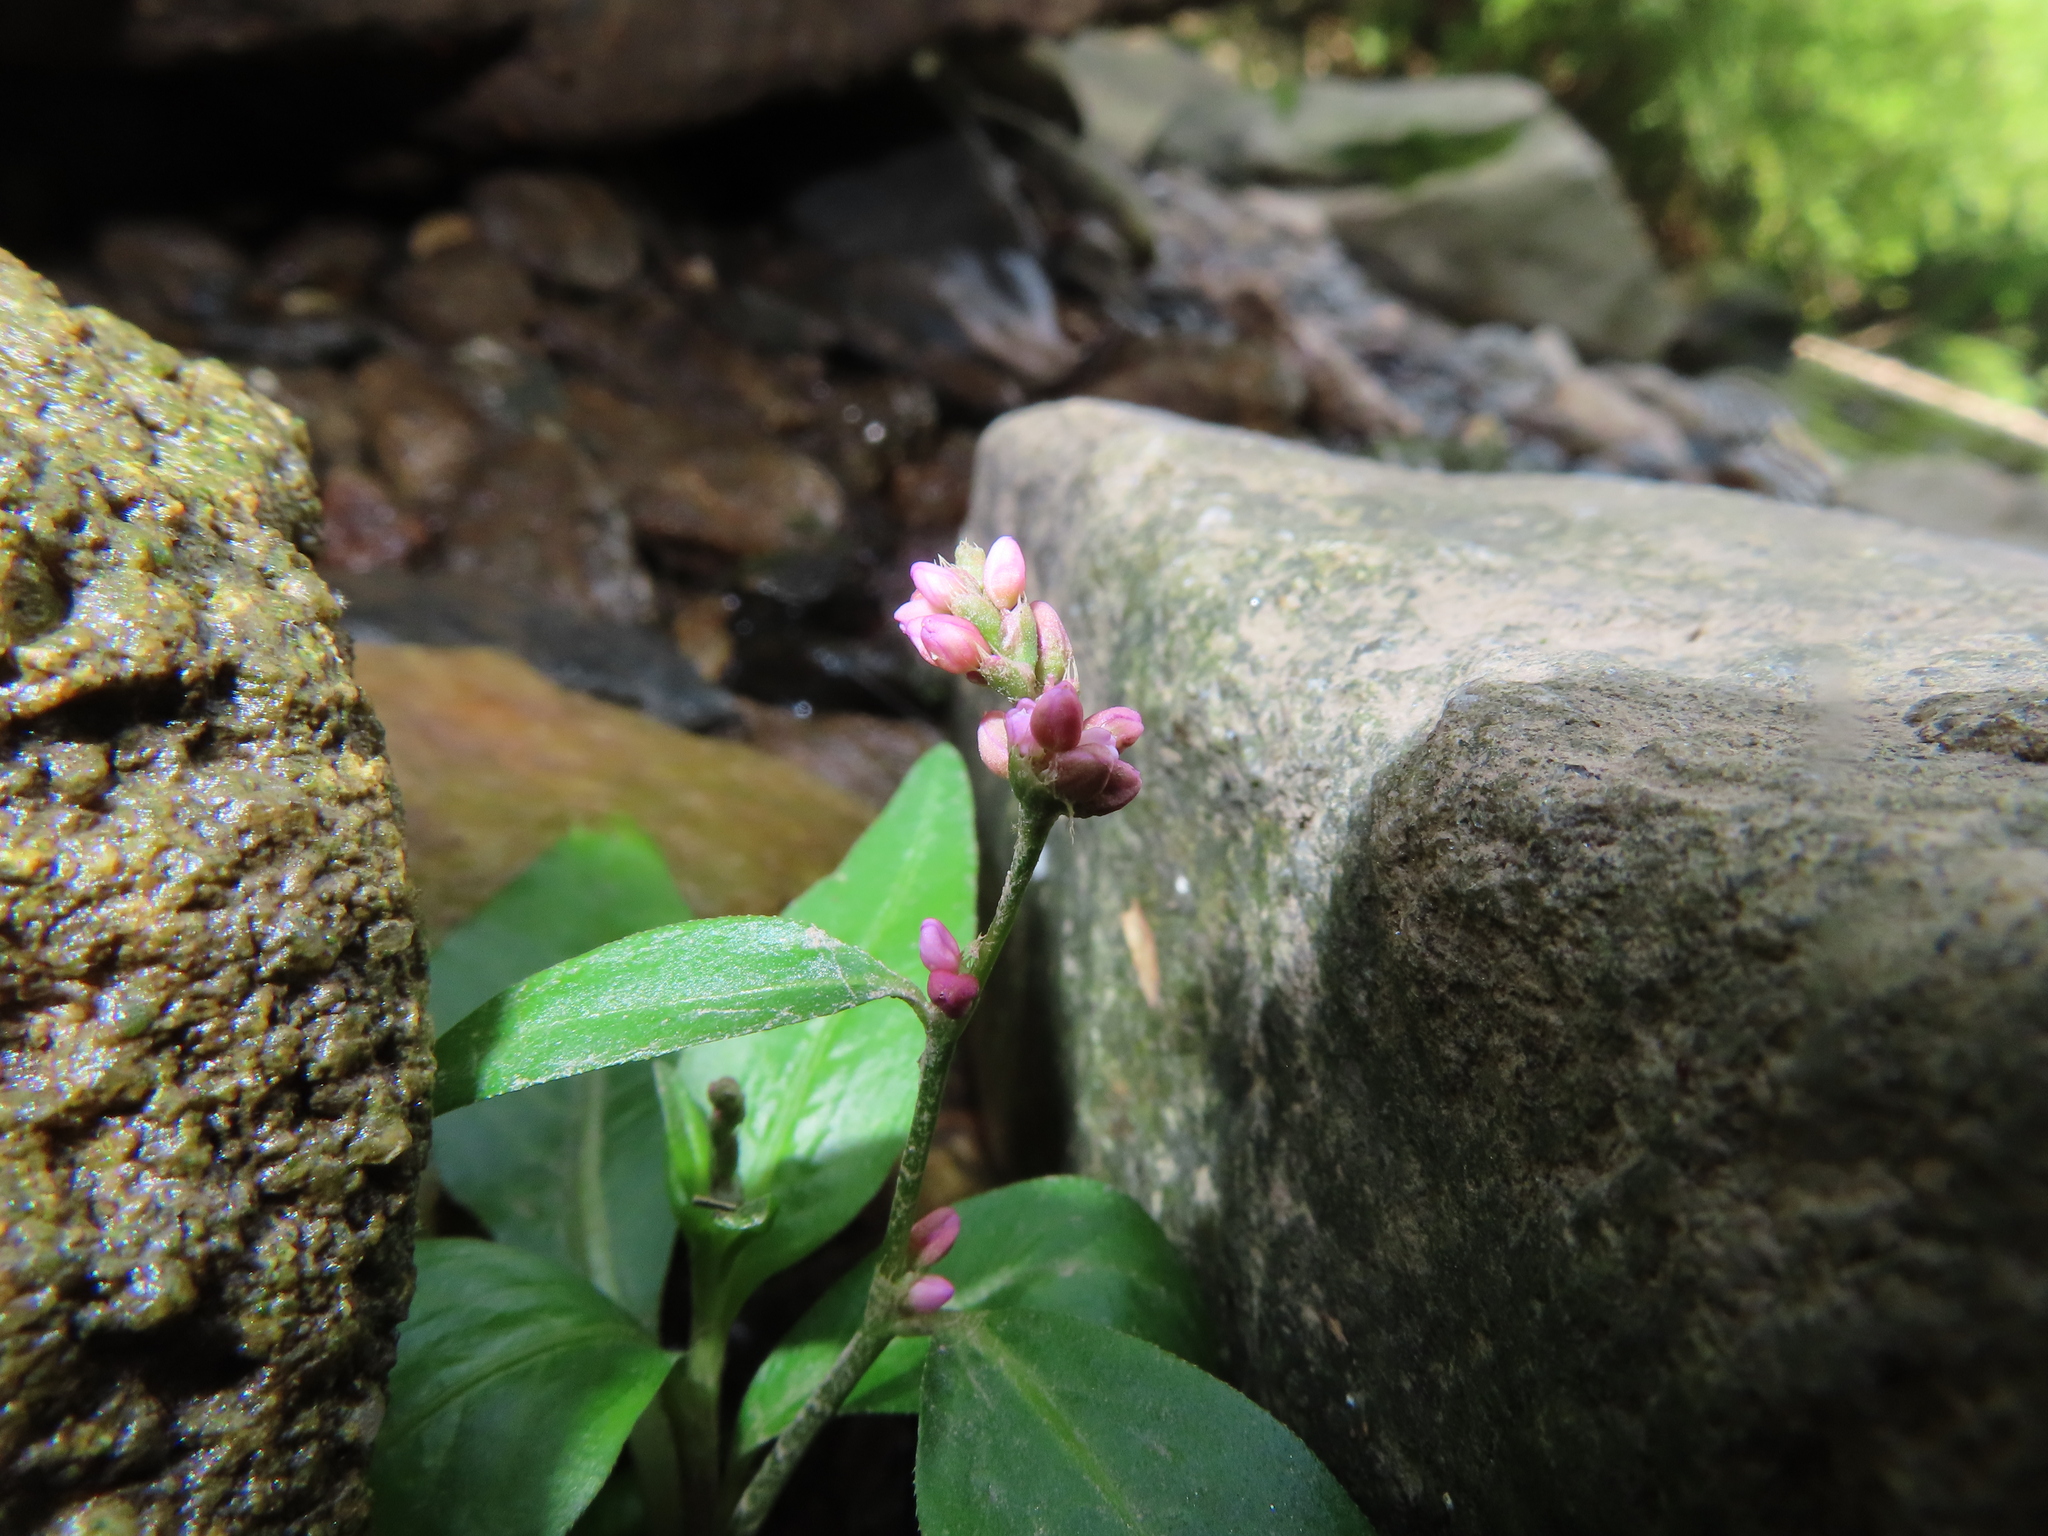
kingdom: Plantae
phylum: Tracheophyta
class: Magnoliopsida
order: Caryophyllales
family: Polygonaceae
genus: Persicaria
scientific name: Persicaria longiseta
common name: Bristly lady's-thumb
